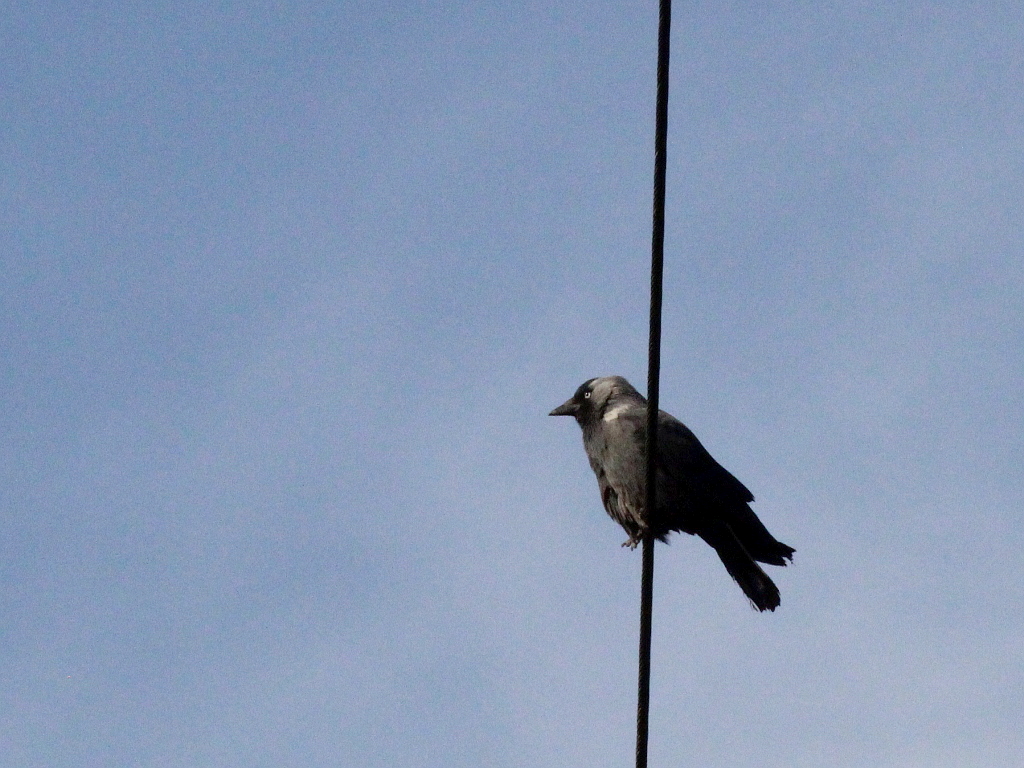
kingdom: Animalia
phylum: Chordata
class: Aves
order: Passeriformes
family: Corvidae
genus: Coloeus
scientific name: Coloeus monedula
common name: Western jackdaw
